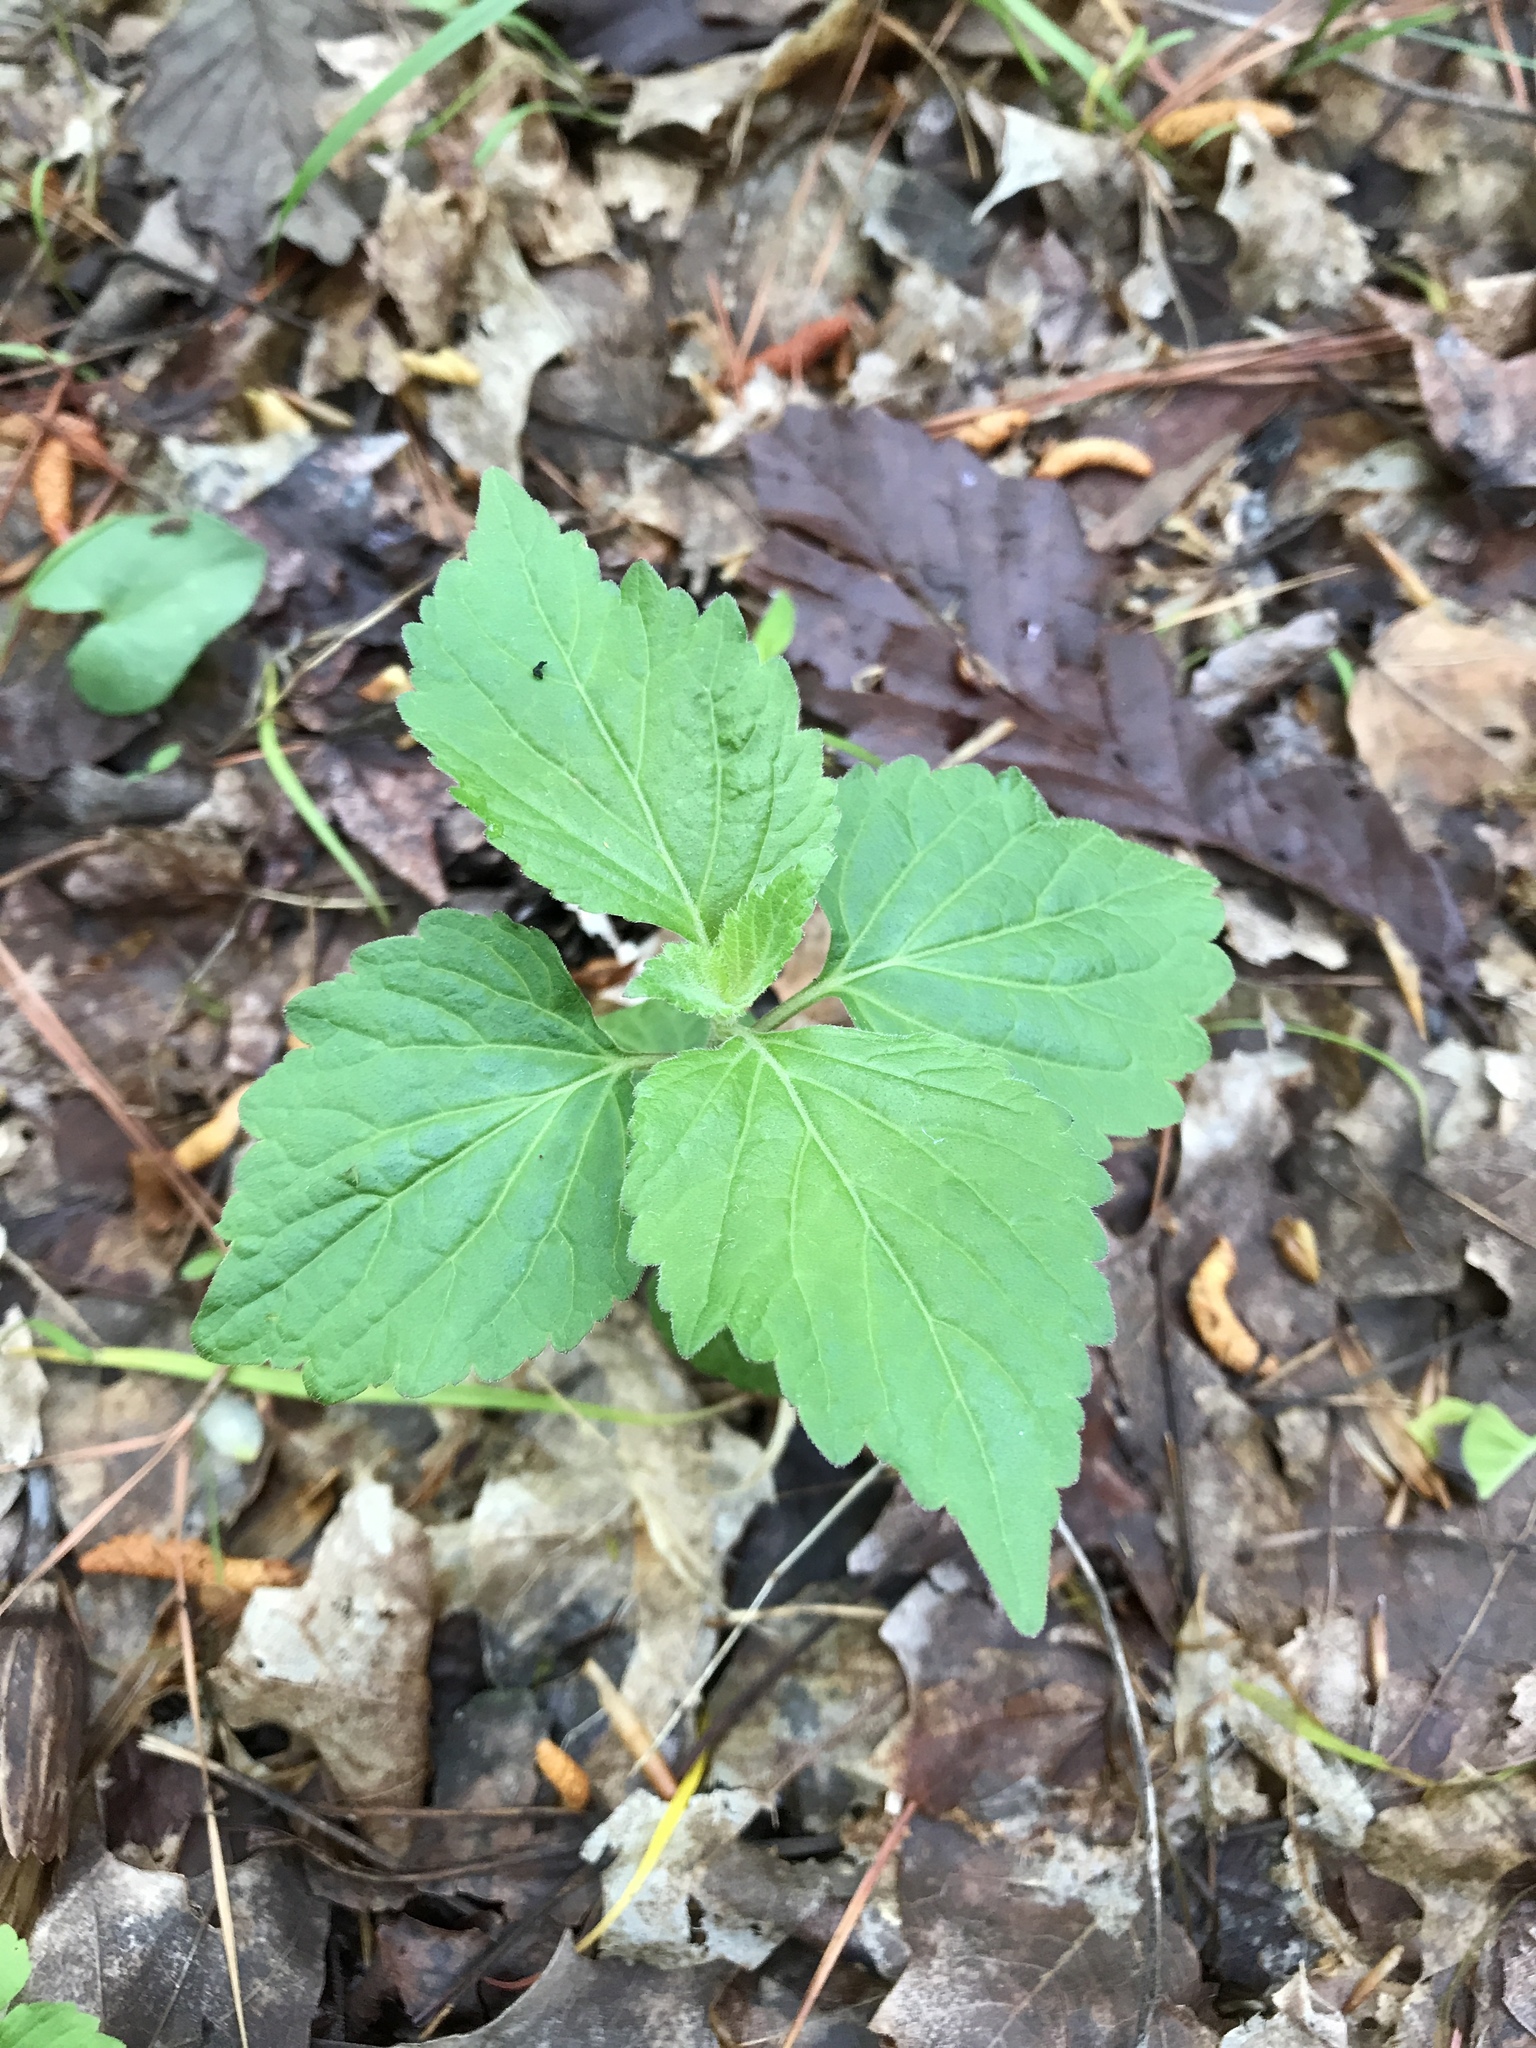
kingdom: Plantae
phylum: Tracheophyta
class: Magnoliopsida
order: Lamiales
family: Phrymaceae
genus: Phryma
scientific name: Phryma leptostachya
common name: American lopseed
